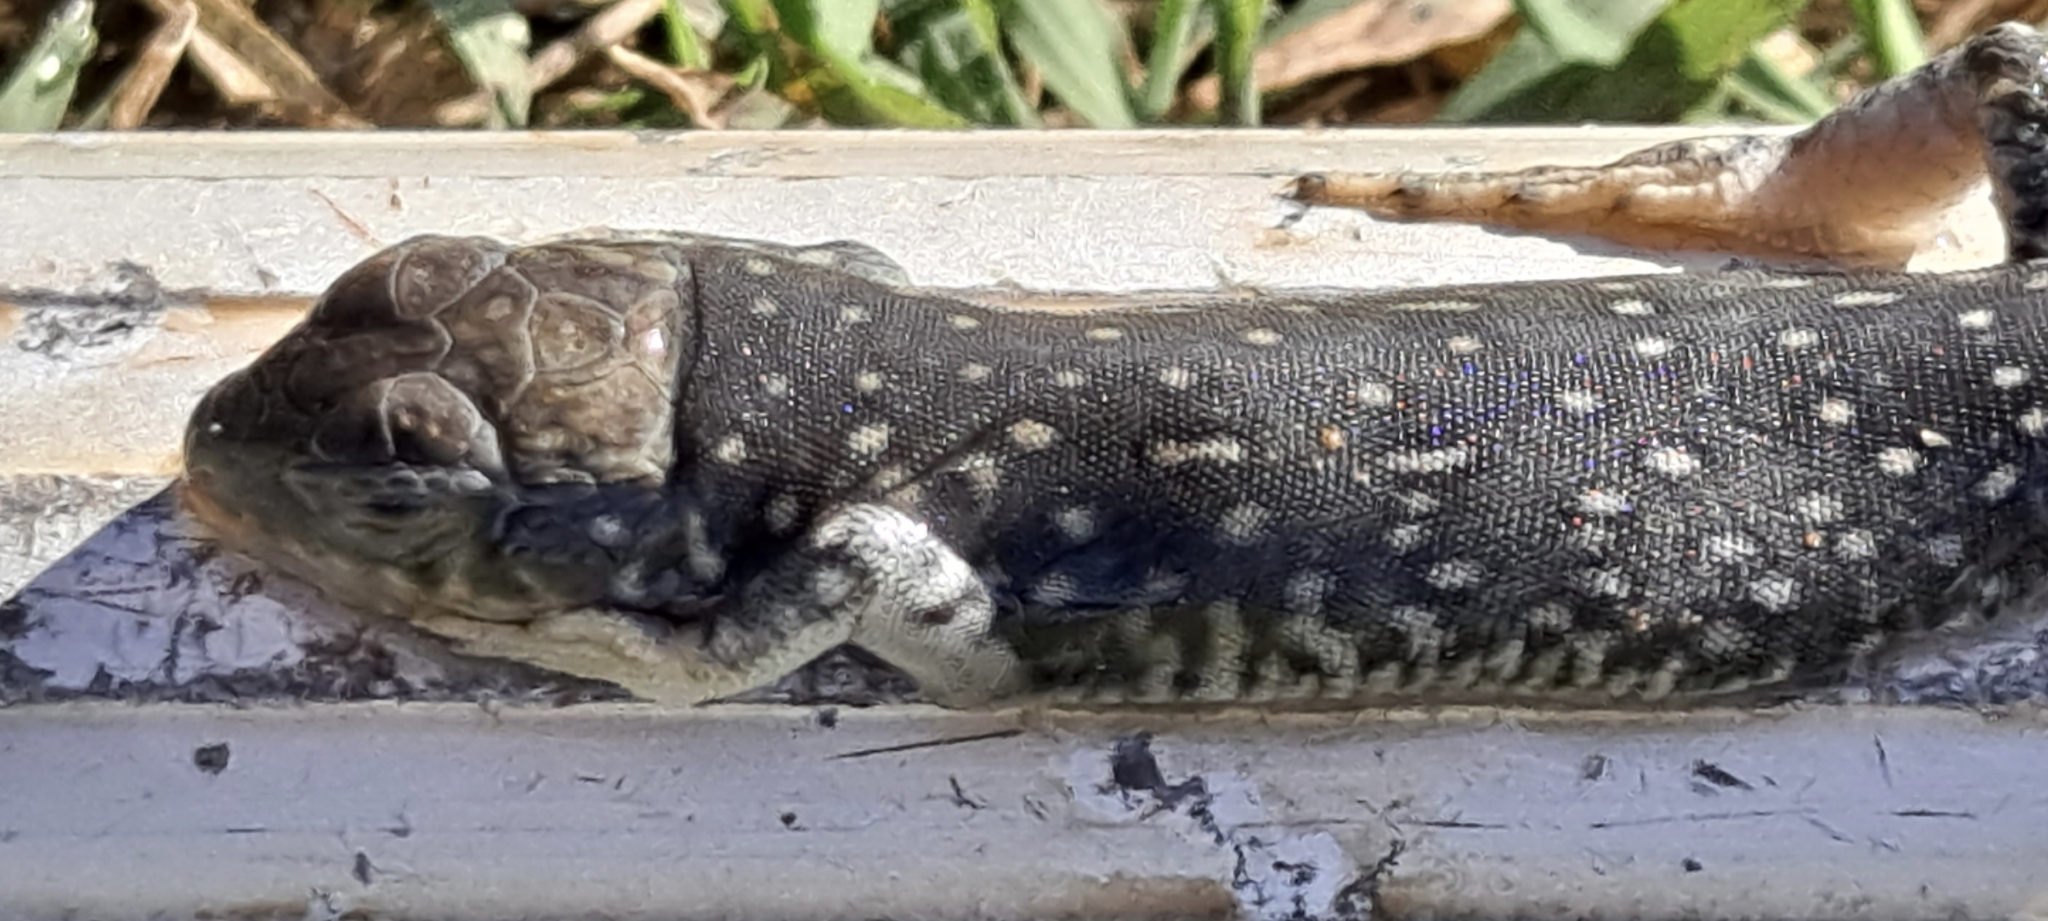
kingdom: Animalia
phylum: Chordata
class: Squamata
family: Lacertidae
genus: Timon
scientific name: Timon lepidus
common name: Ocellated lizard
